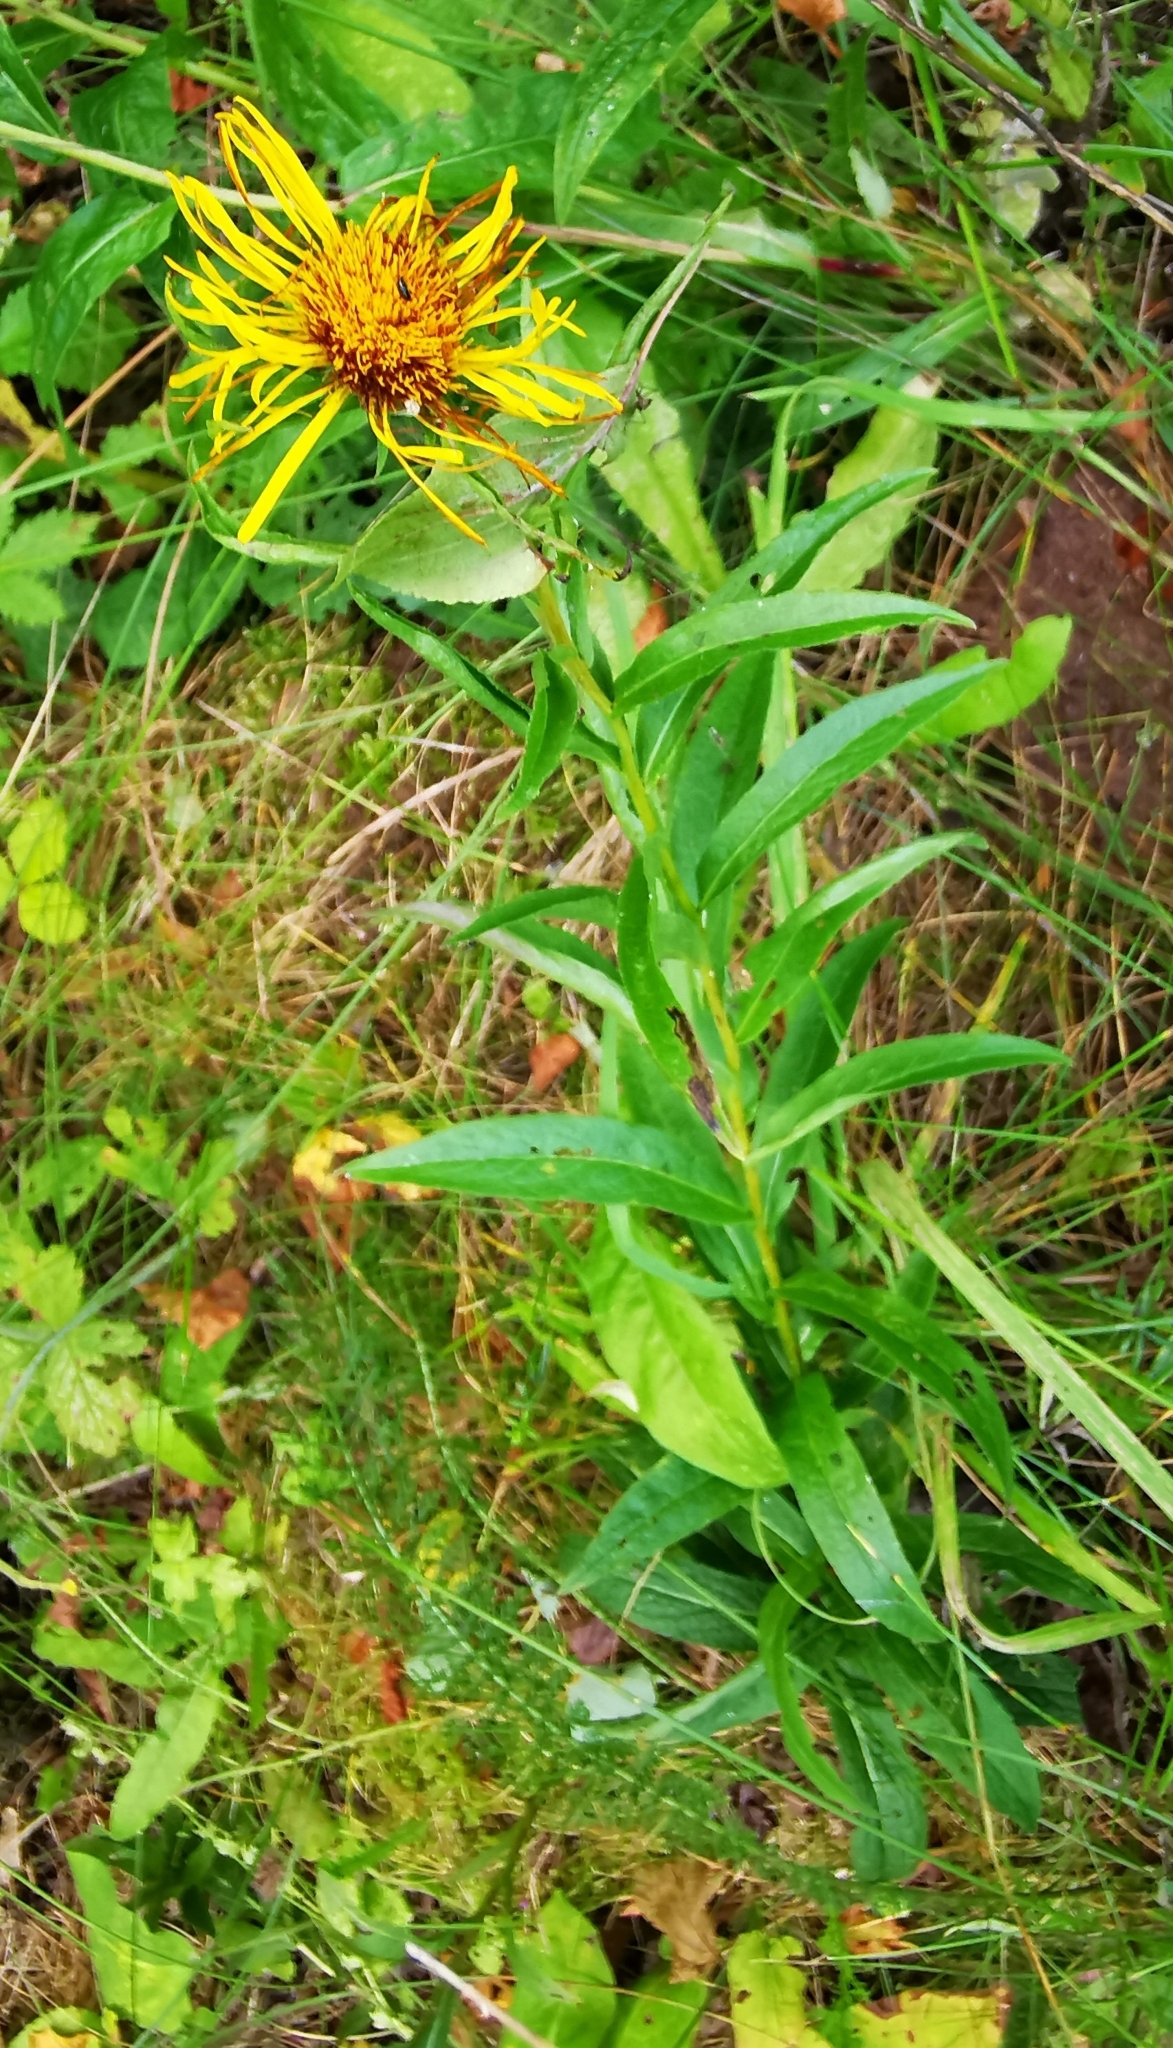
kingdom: Plantae
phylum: Tracheophyta
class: Magnoliopsida
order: Asterales
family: Asteraceae
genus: Pentanema
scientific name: Pentanema salicinum
